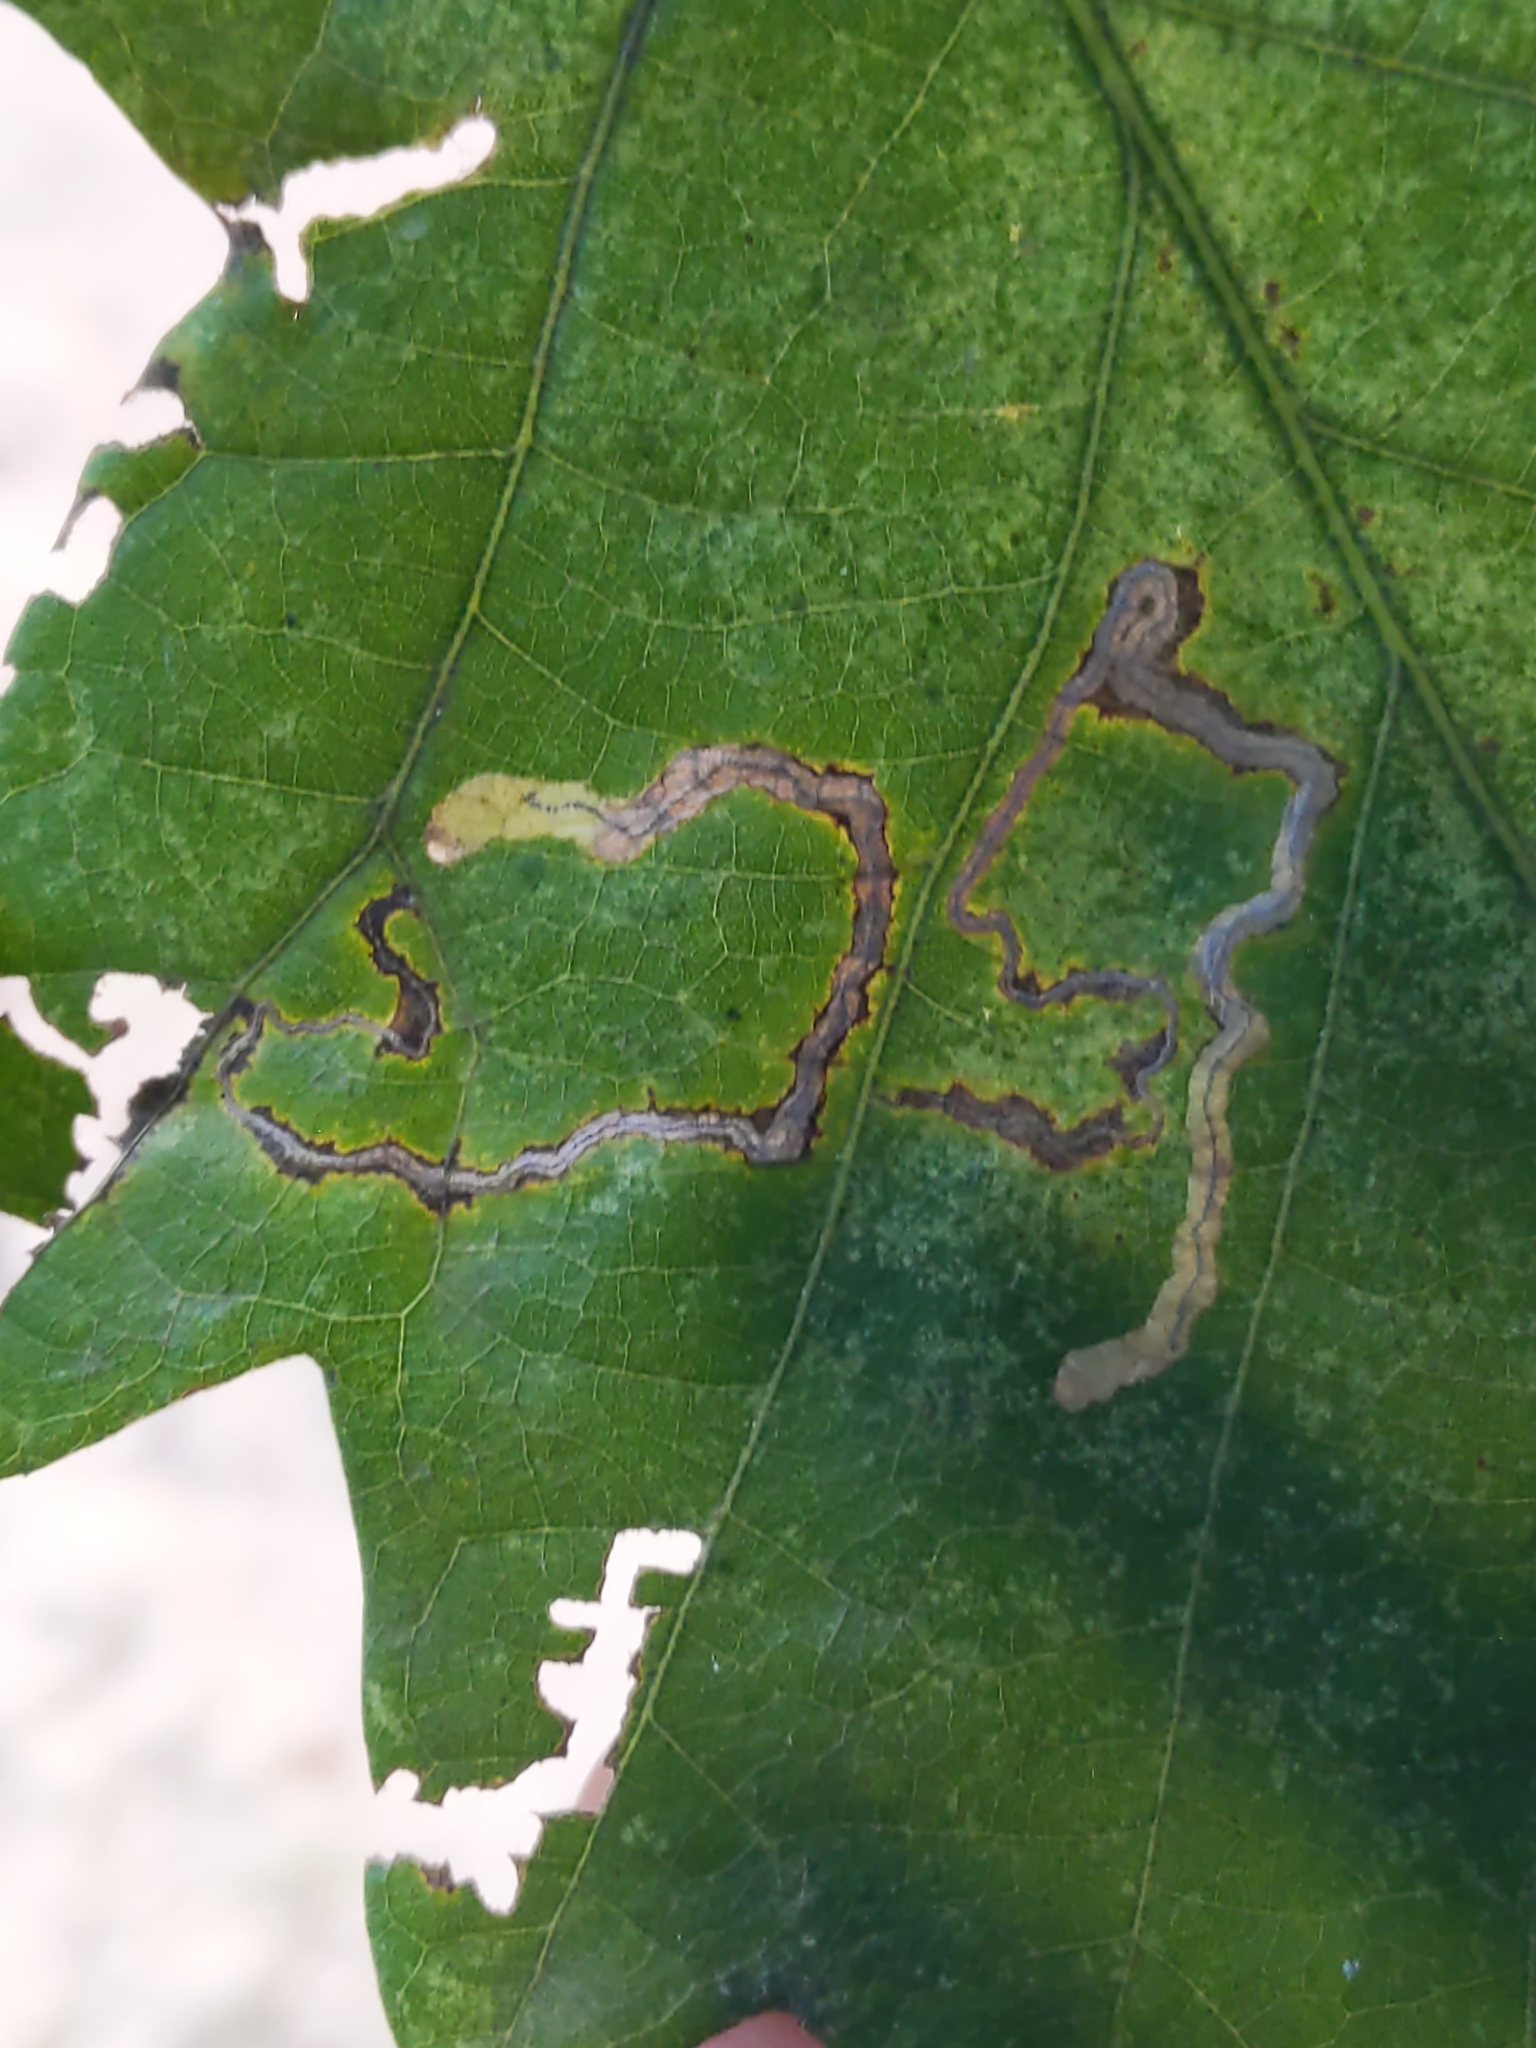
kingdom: Animalia
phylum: Arthropoda
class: Insecta
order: Lepidoptera
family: Nepticulidae
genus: Stigmella
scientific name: Stigmella
